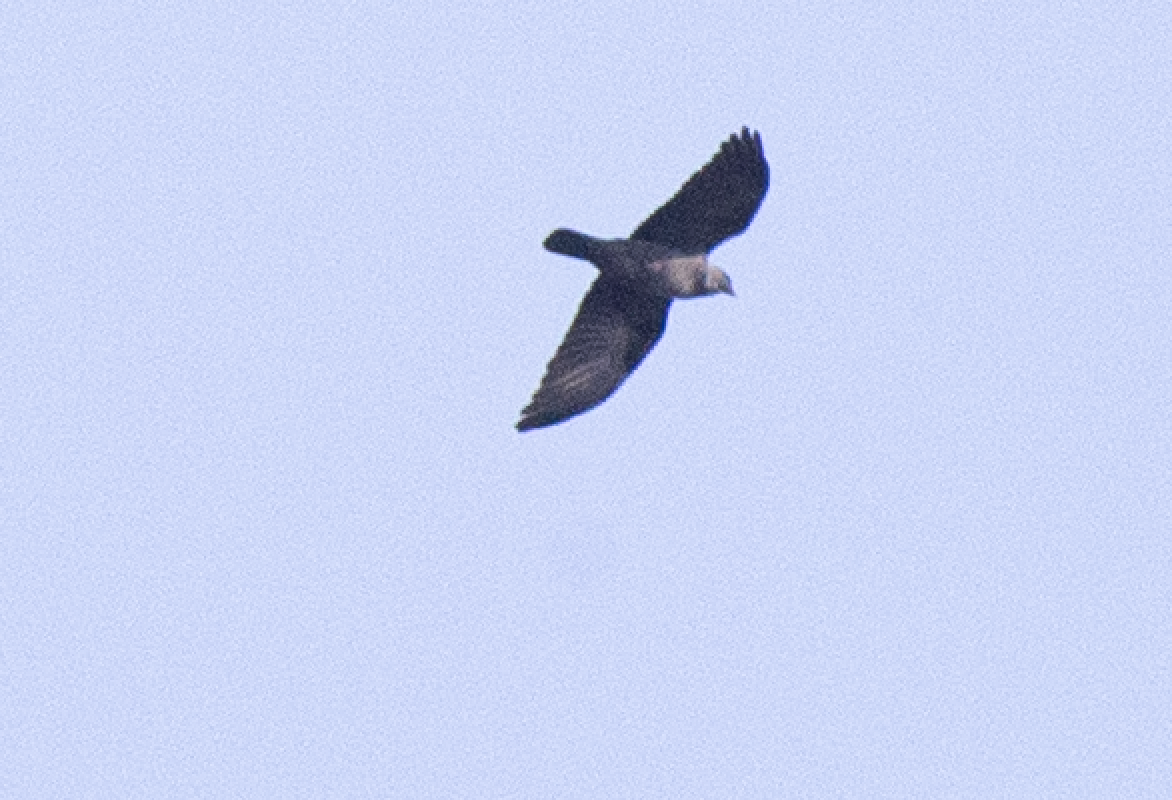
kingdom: Animalia
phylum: Chordata
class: Aves
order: Passeriformes
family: Corvidae
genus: Coloeus
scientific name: Coloeus monedula
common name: Western jackdaw
